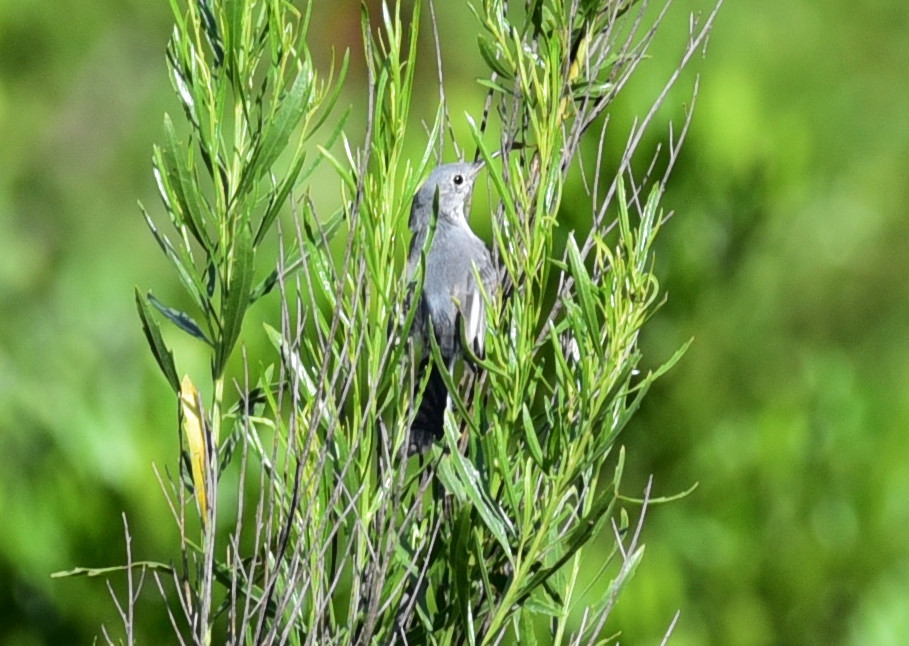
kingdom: Animalia
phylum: Chordata
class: Aves
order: Passeriformes
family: Polioptilidae
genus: Polioptila
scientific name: Polioptila caerulea
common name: Blue-gray gnatcatcher
